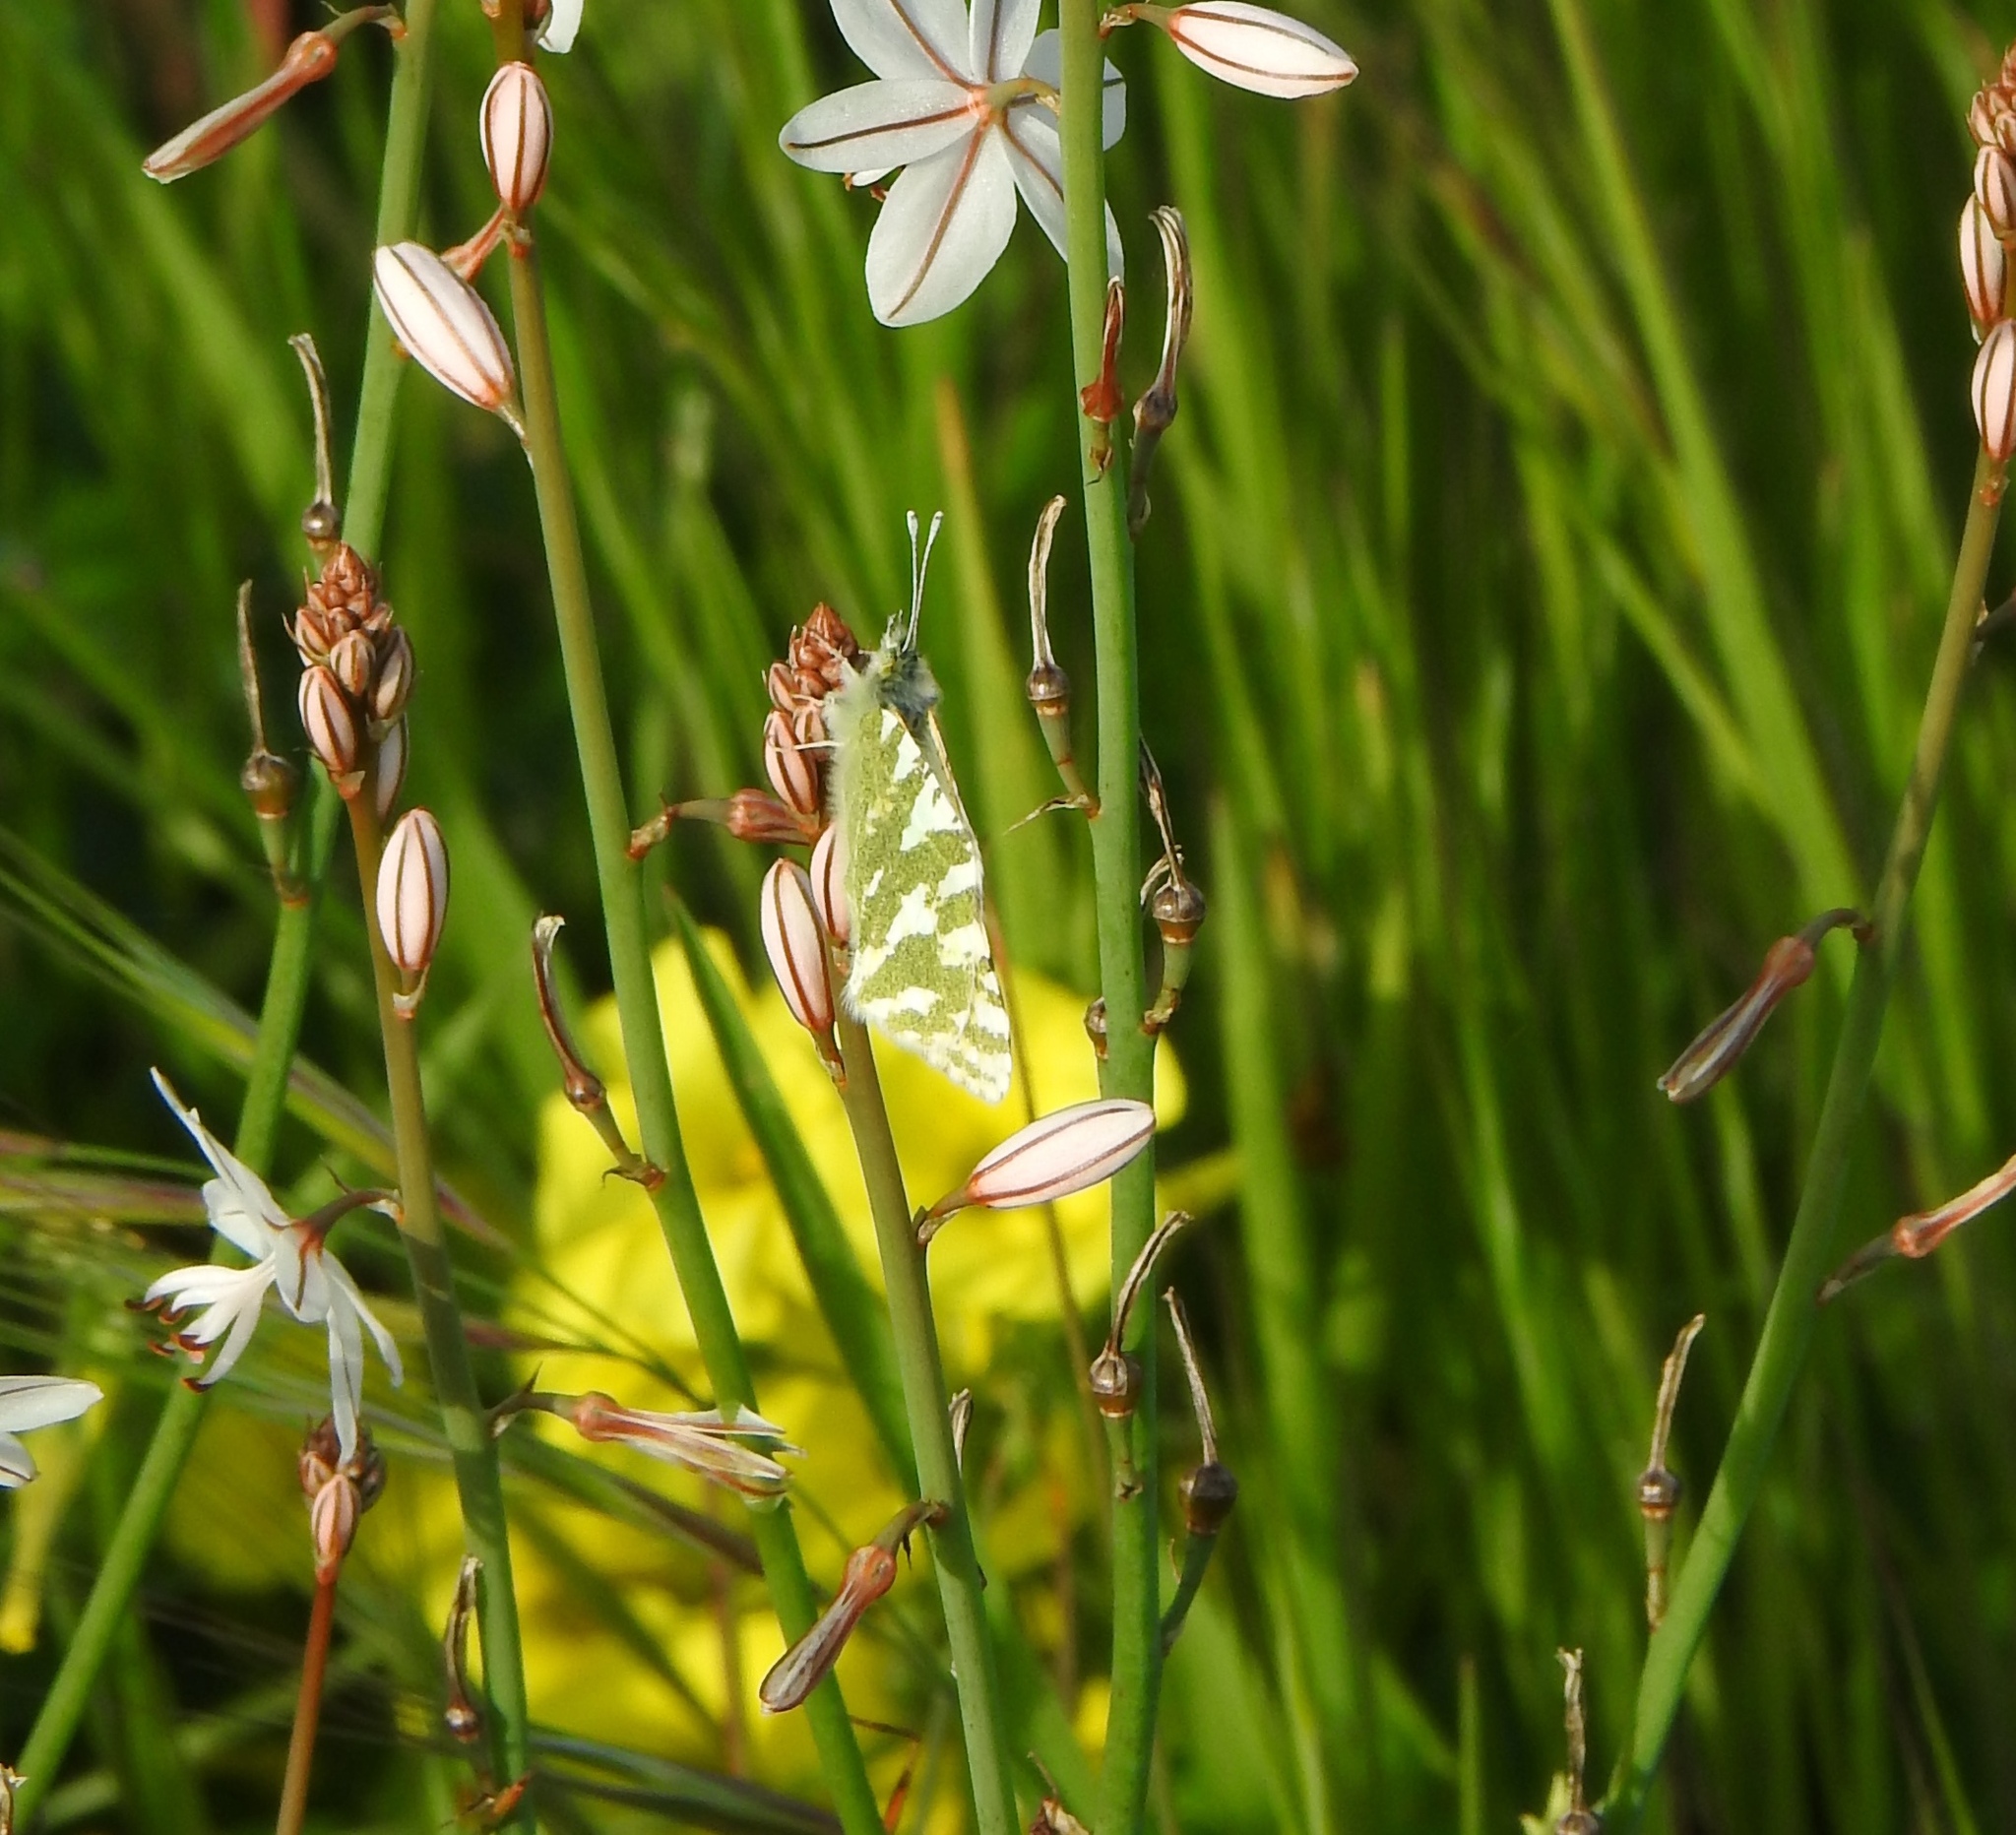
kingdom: Animalia
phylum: Arthropoda
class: Insecta
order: Lepidoptera
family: Pieridae
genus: Euchloe
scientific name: Euchloe belemia
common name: Green-striped white
